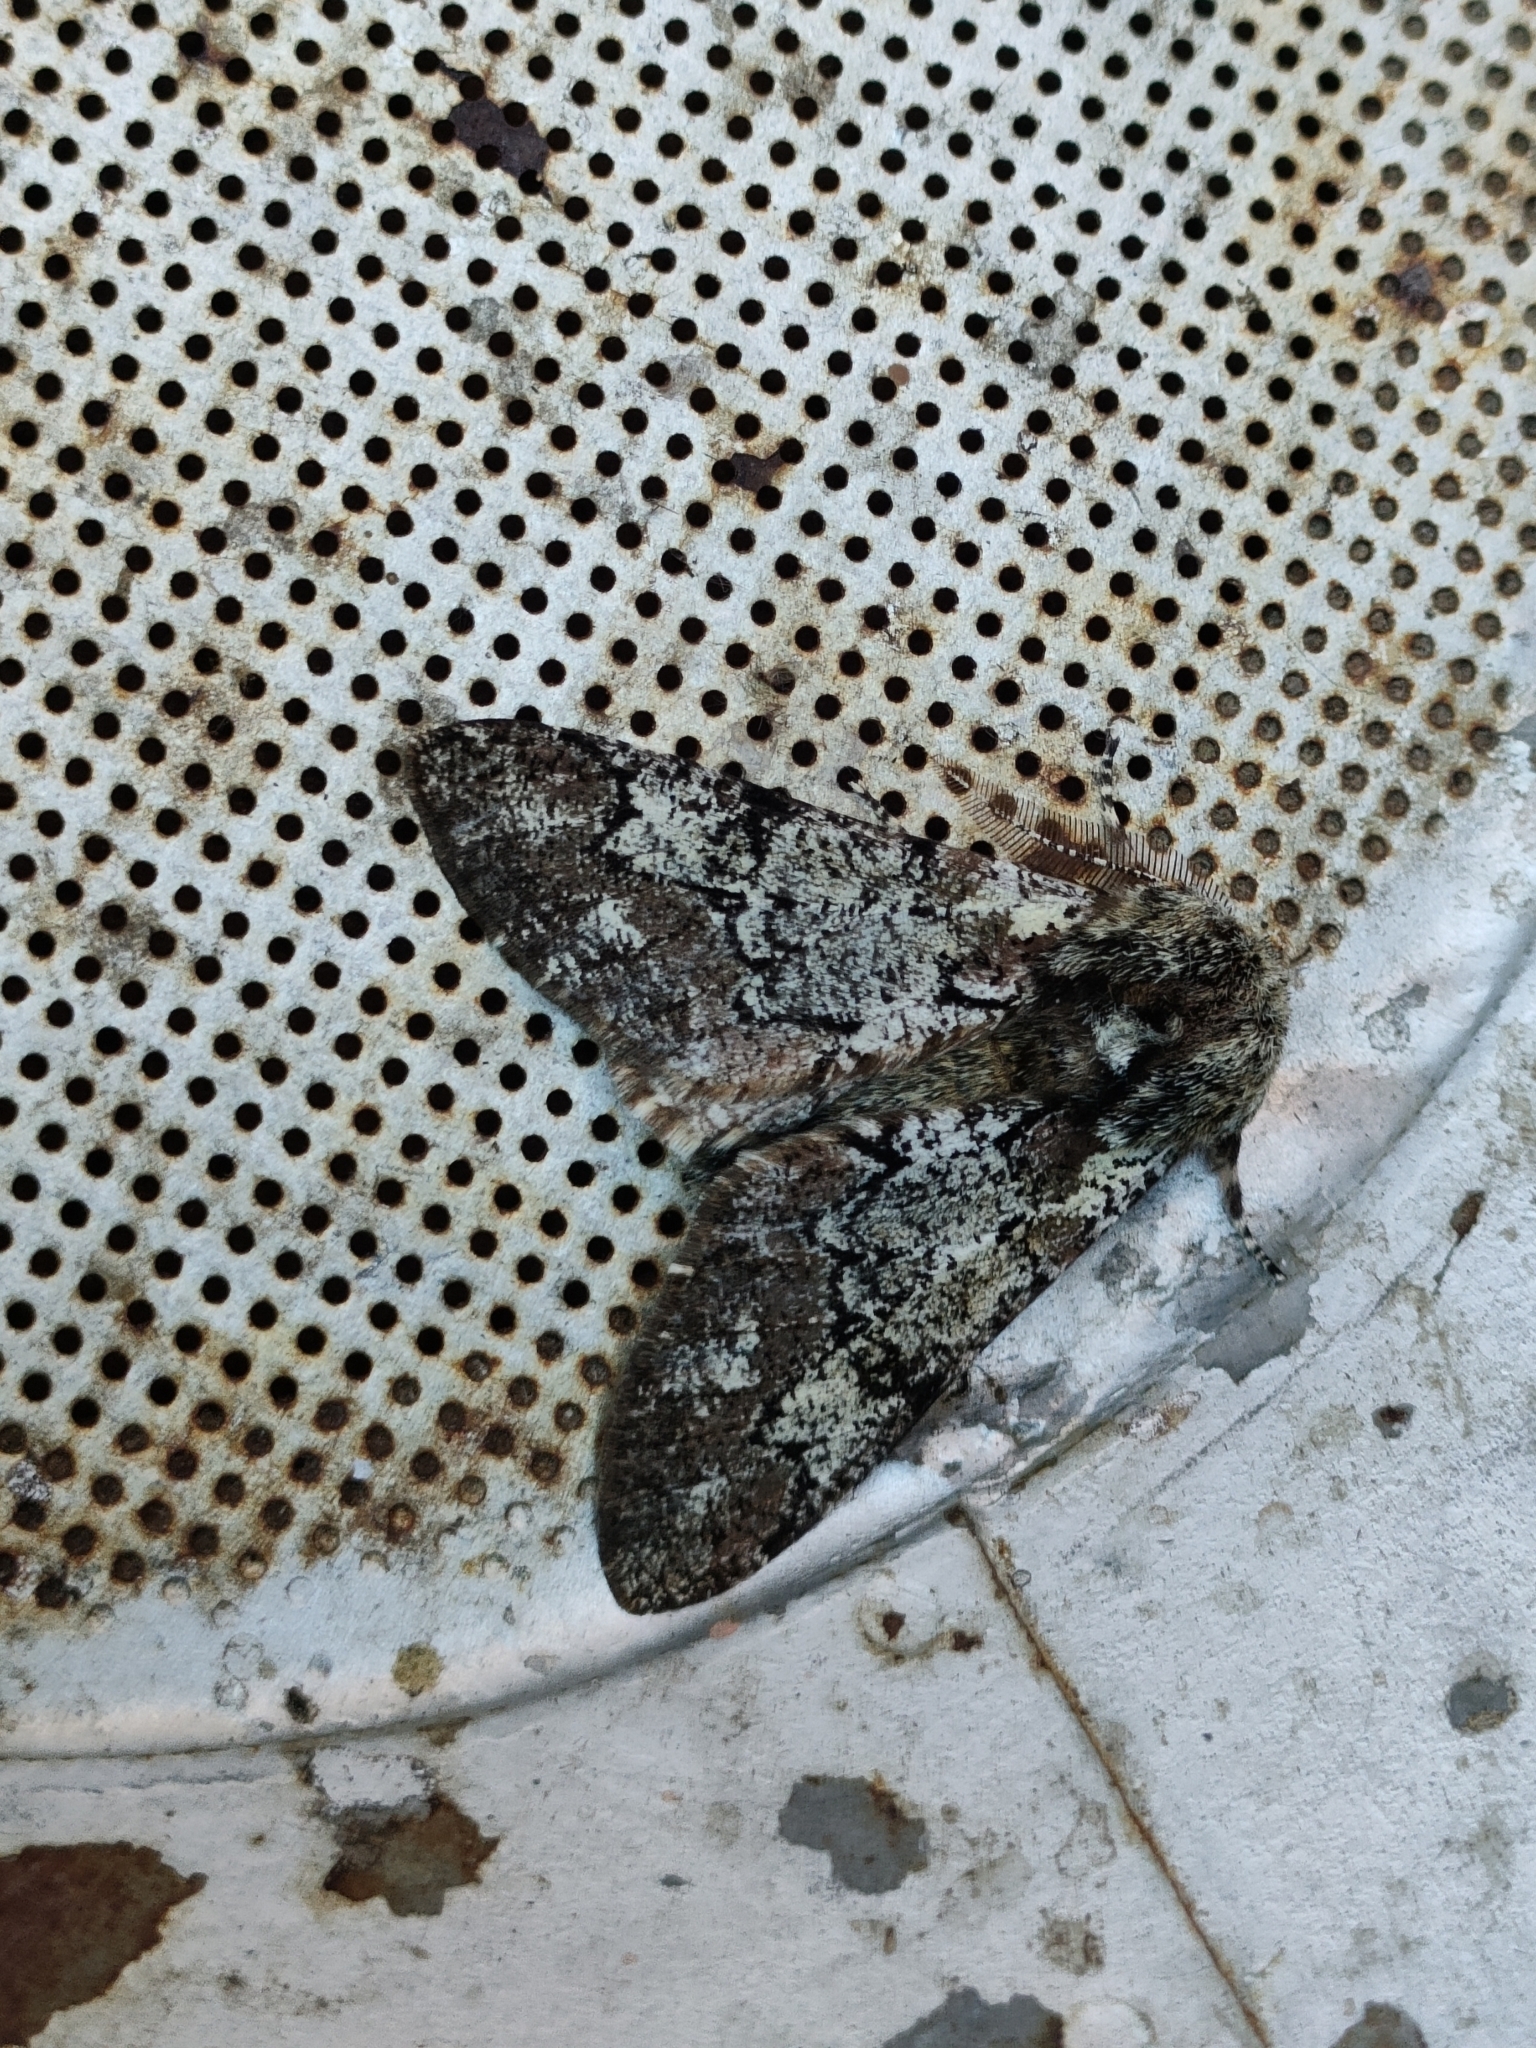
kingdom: Animalia
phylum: Arthropoda
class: Insecta
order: Lepidoptera
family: Geometridae
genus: Biston
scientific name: Biston strataria
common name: Oak beauty
